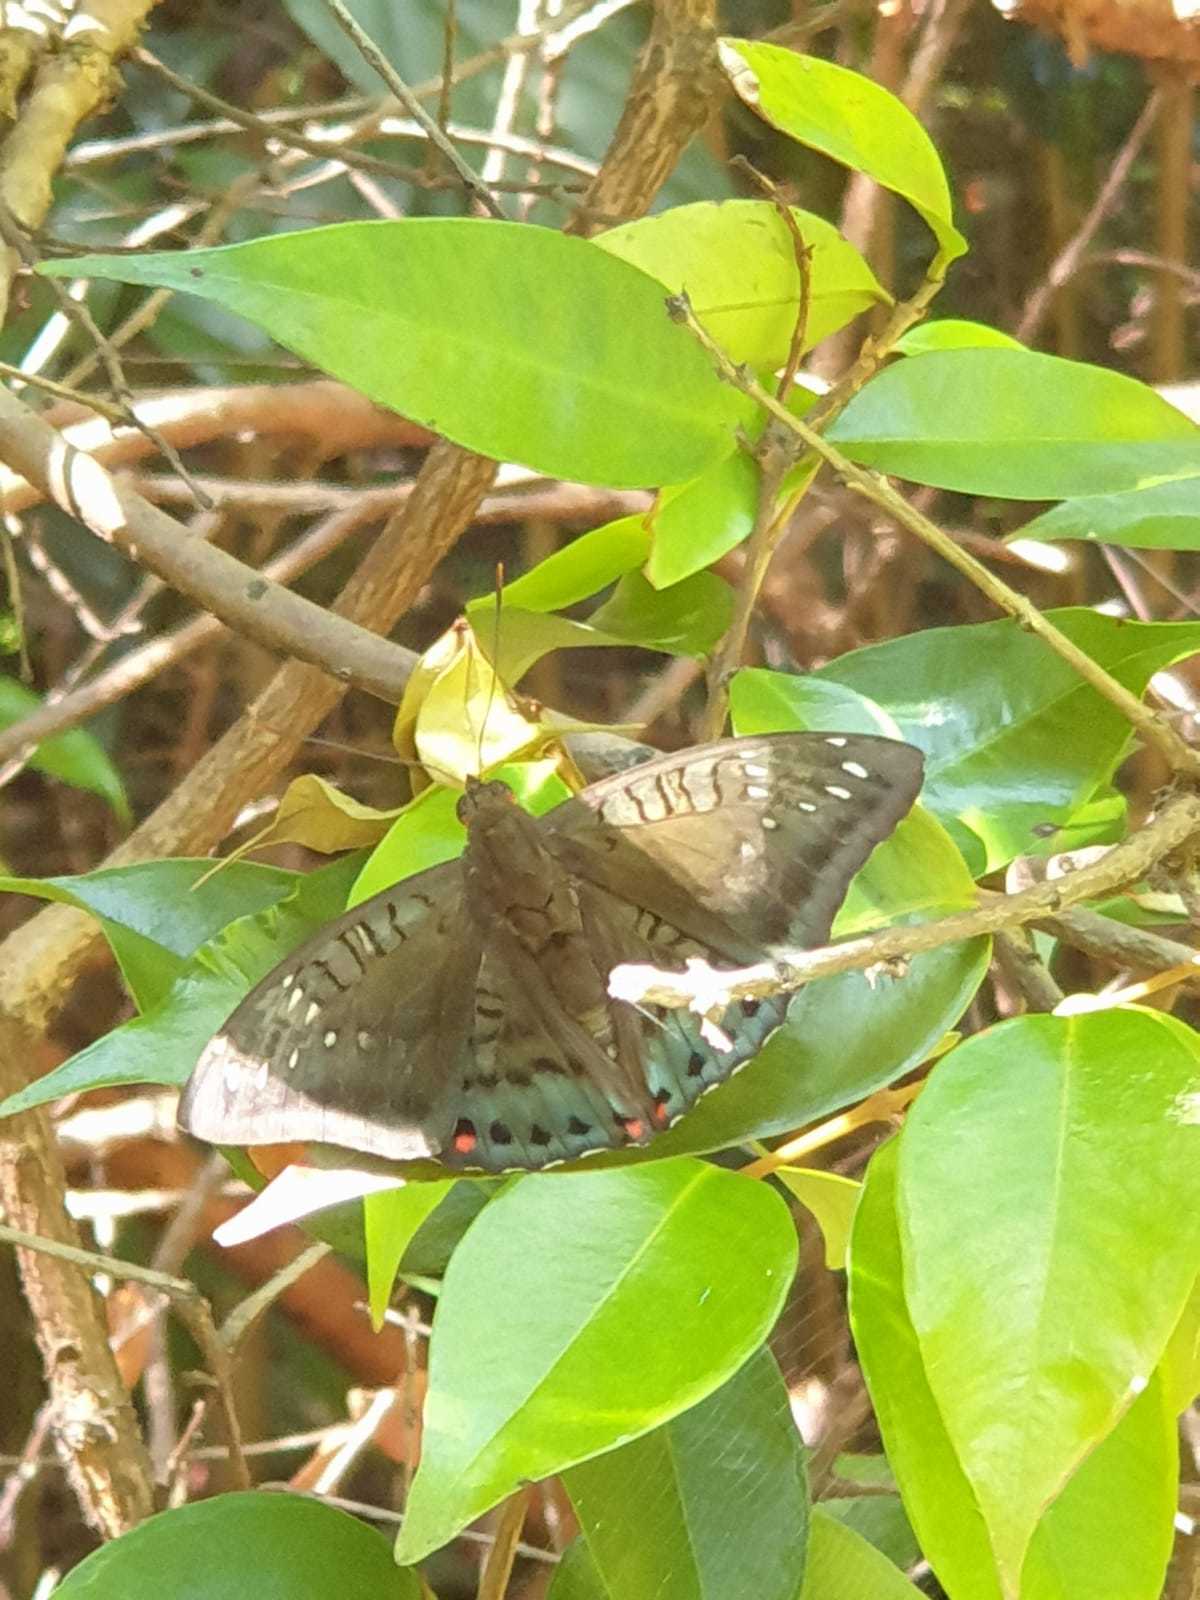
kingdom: Animalia
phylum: Arthropoda
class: Insecta
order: Lepidoptera
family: Nymphalidae
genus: Euthalia
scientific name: Euthalia adonia
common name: Green baron
